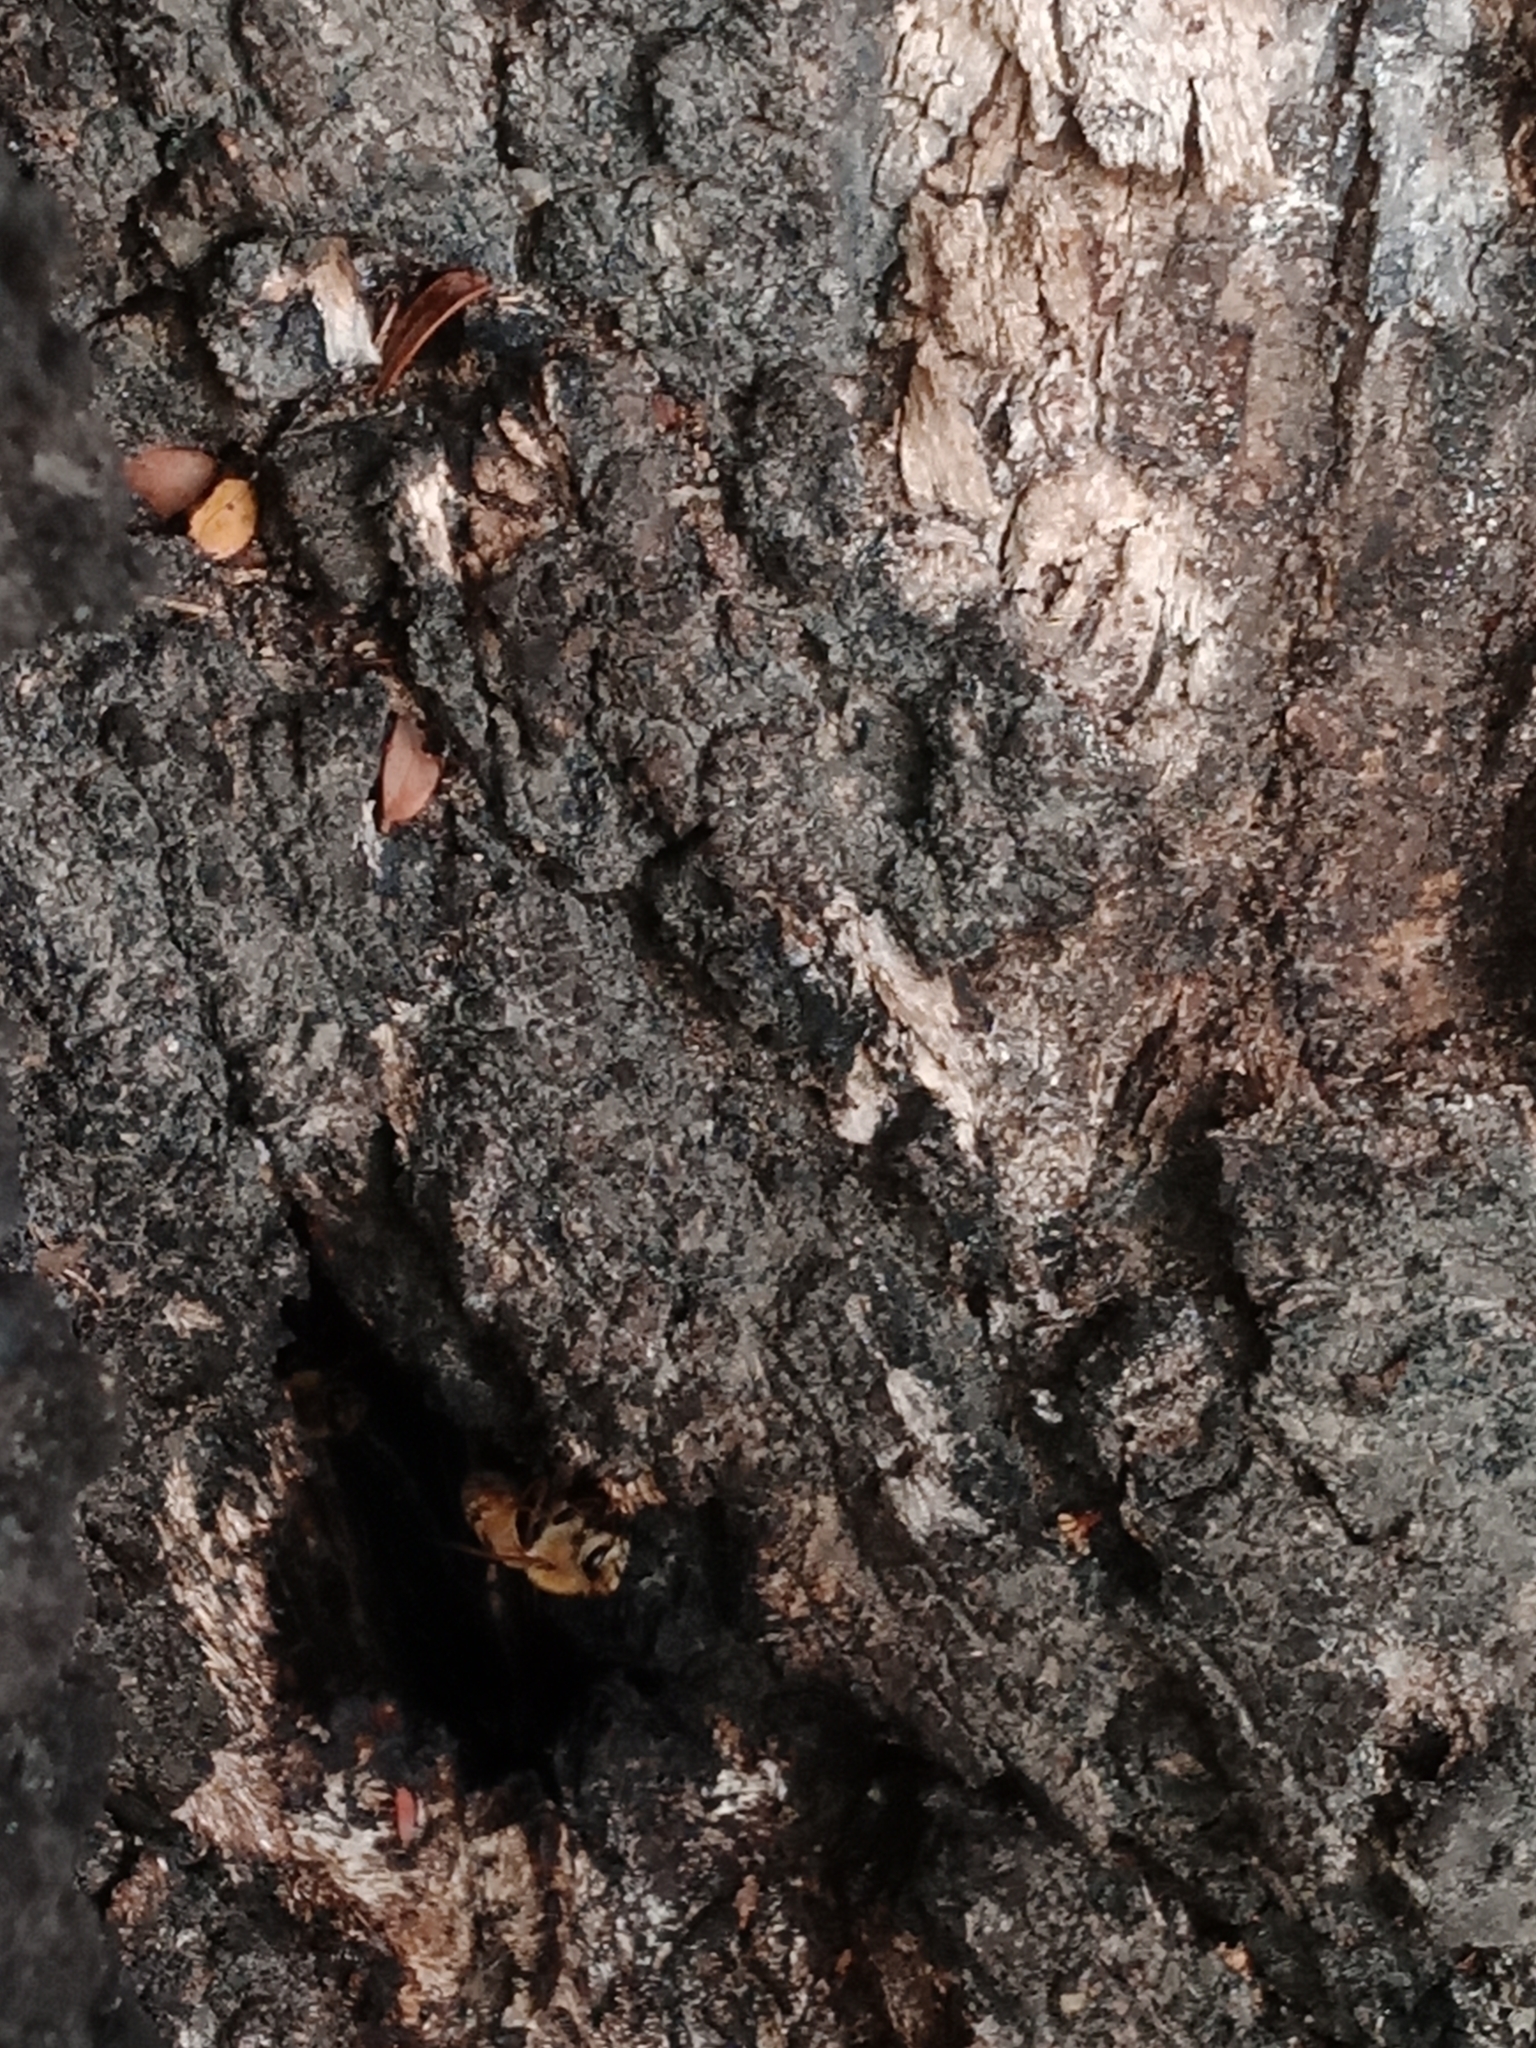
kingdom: Animalia
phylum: Arthropoda
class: Insecta
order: Hymenoptera
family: Apidae
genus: Apis
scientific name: Apis mellifera
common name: Honey bee
